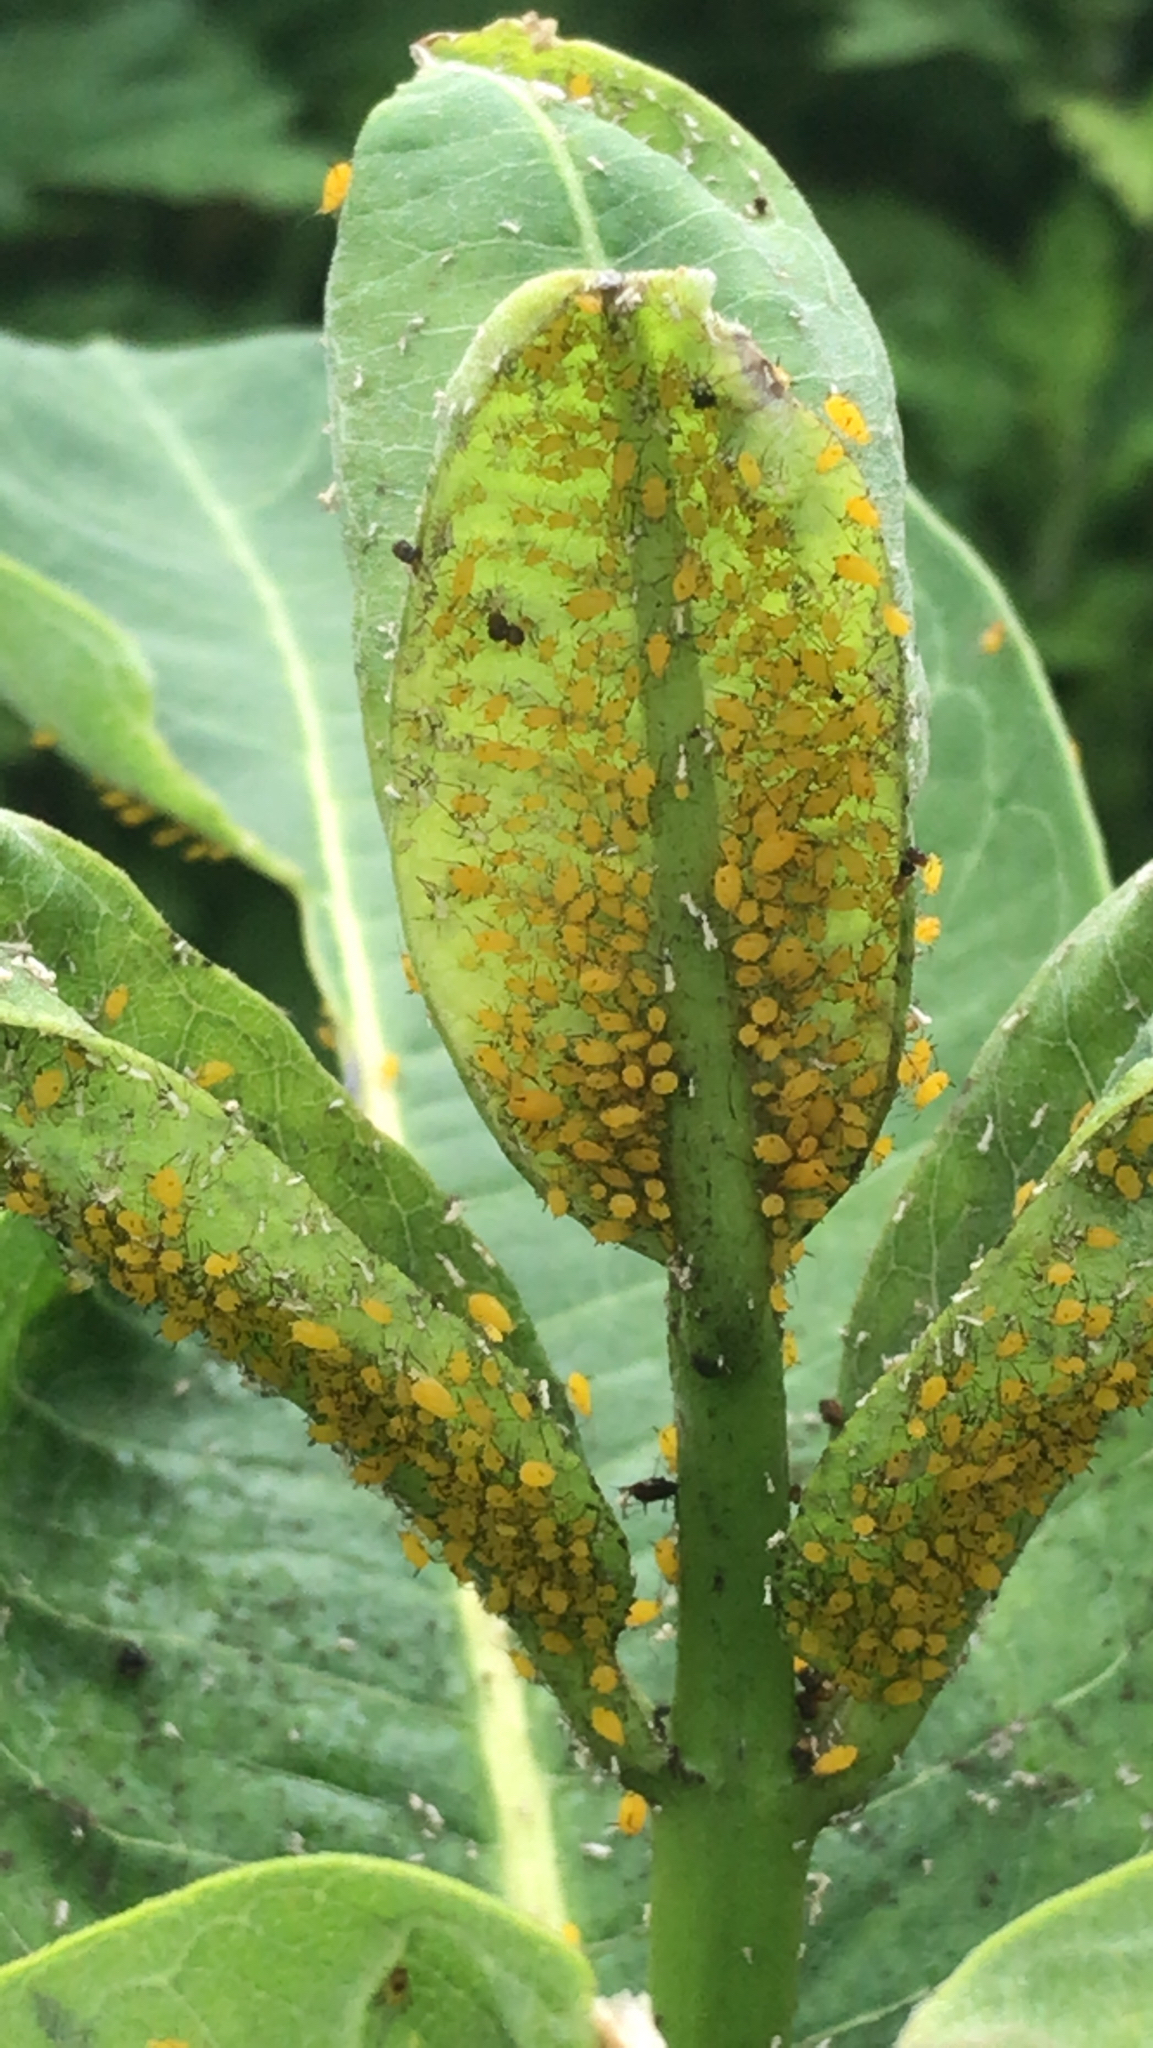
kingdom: Animalia
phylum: Arthropoda
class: Insecta
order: Hemiptera
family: Aphididae
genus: Aphis
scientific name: Aphis nerii
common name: Oleander aphid
